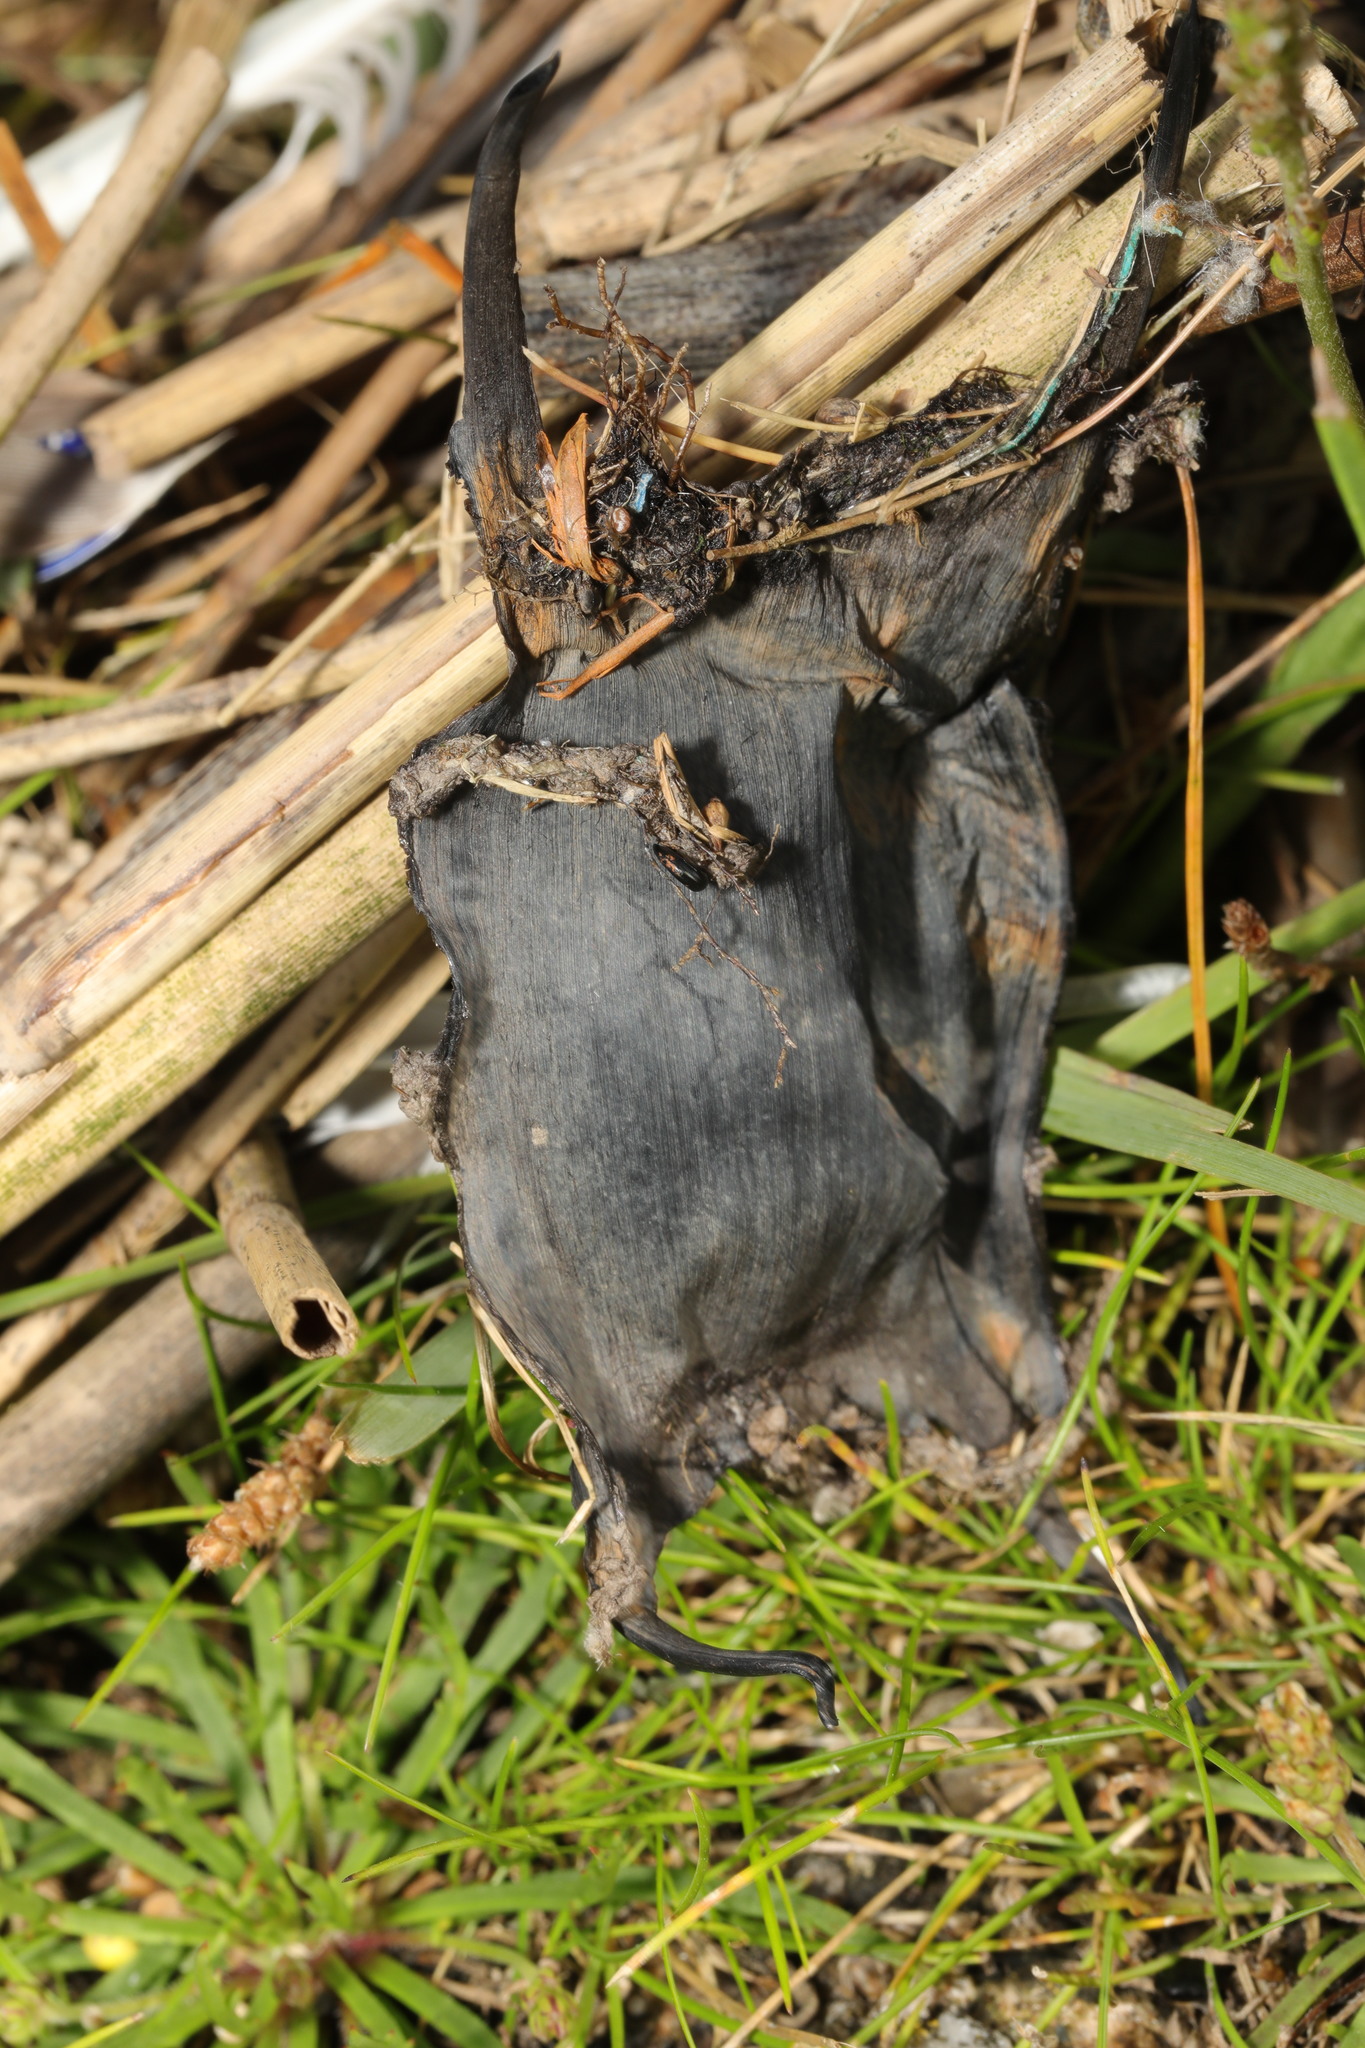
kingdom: Animalia
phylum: Chordata
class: Elasmobranchii
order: Rajiformes
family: Rajidae
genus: Raja
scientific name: Raja clavata
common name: Thornback ray
